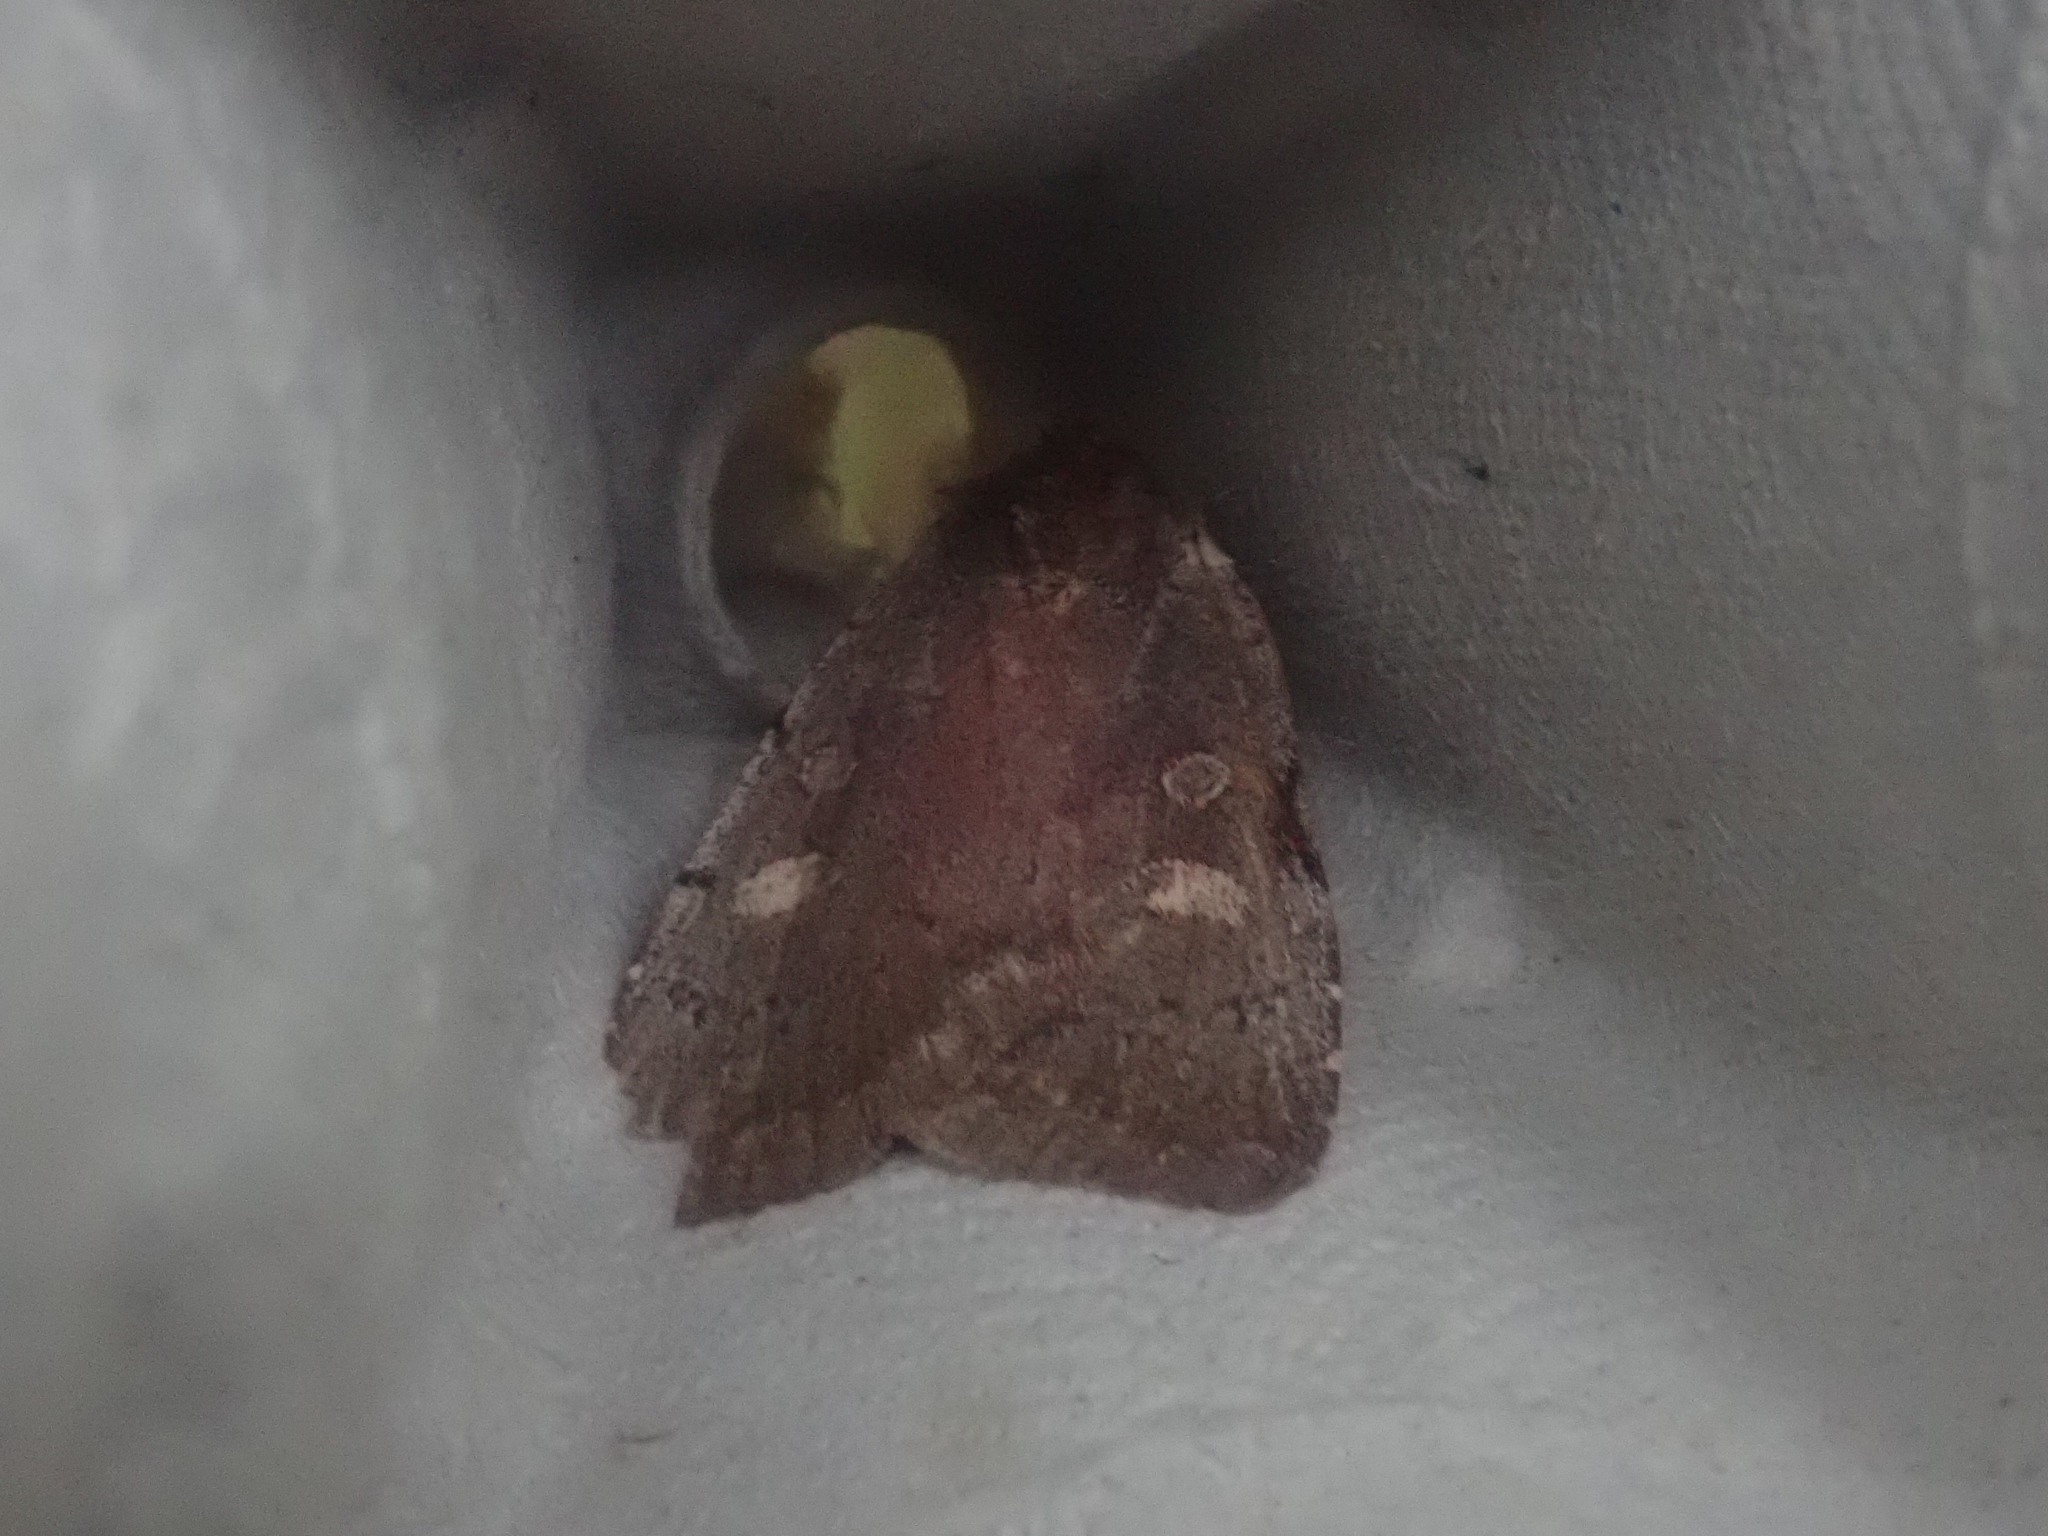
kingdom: Animalia
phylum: Arthropoda
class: Insecta
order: Lepidoptera
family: Noctuidae
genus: Xestia
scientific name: Xestia dilucida
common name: Dull reddish dart
